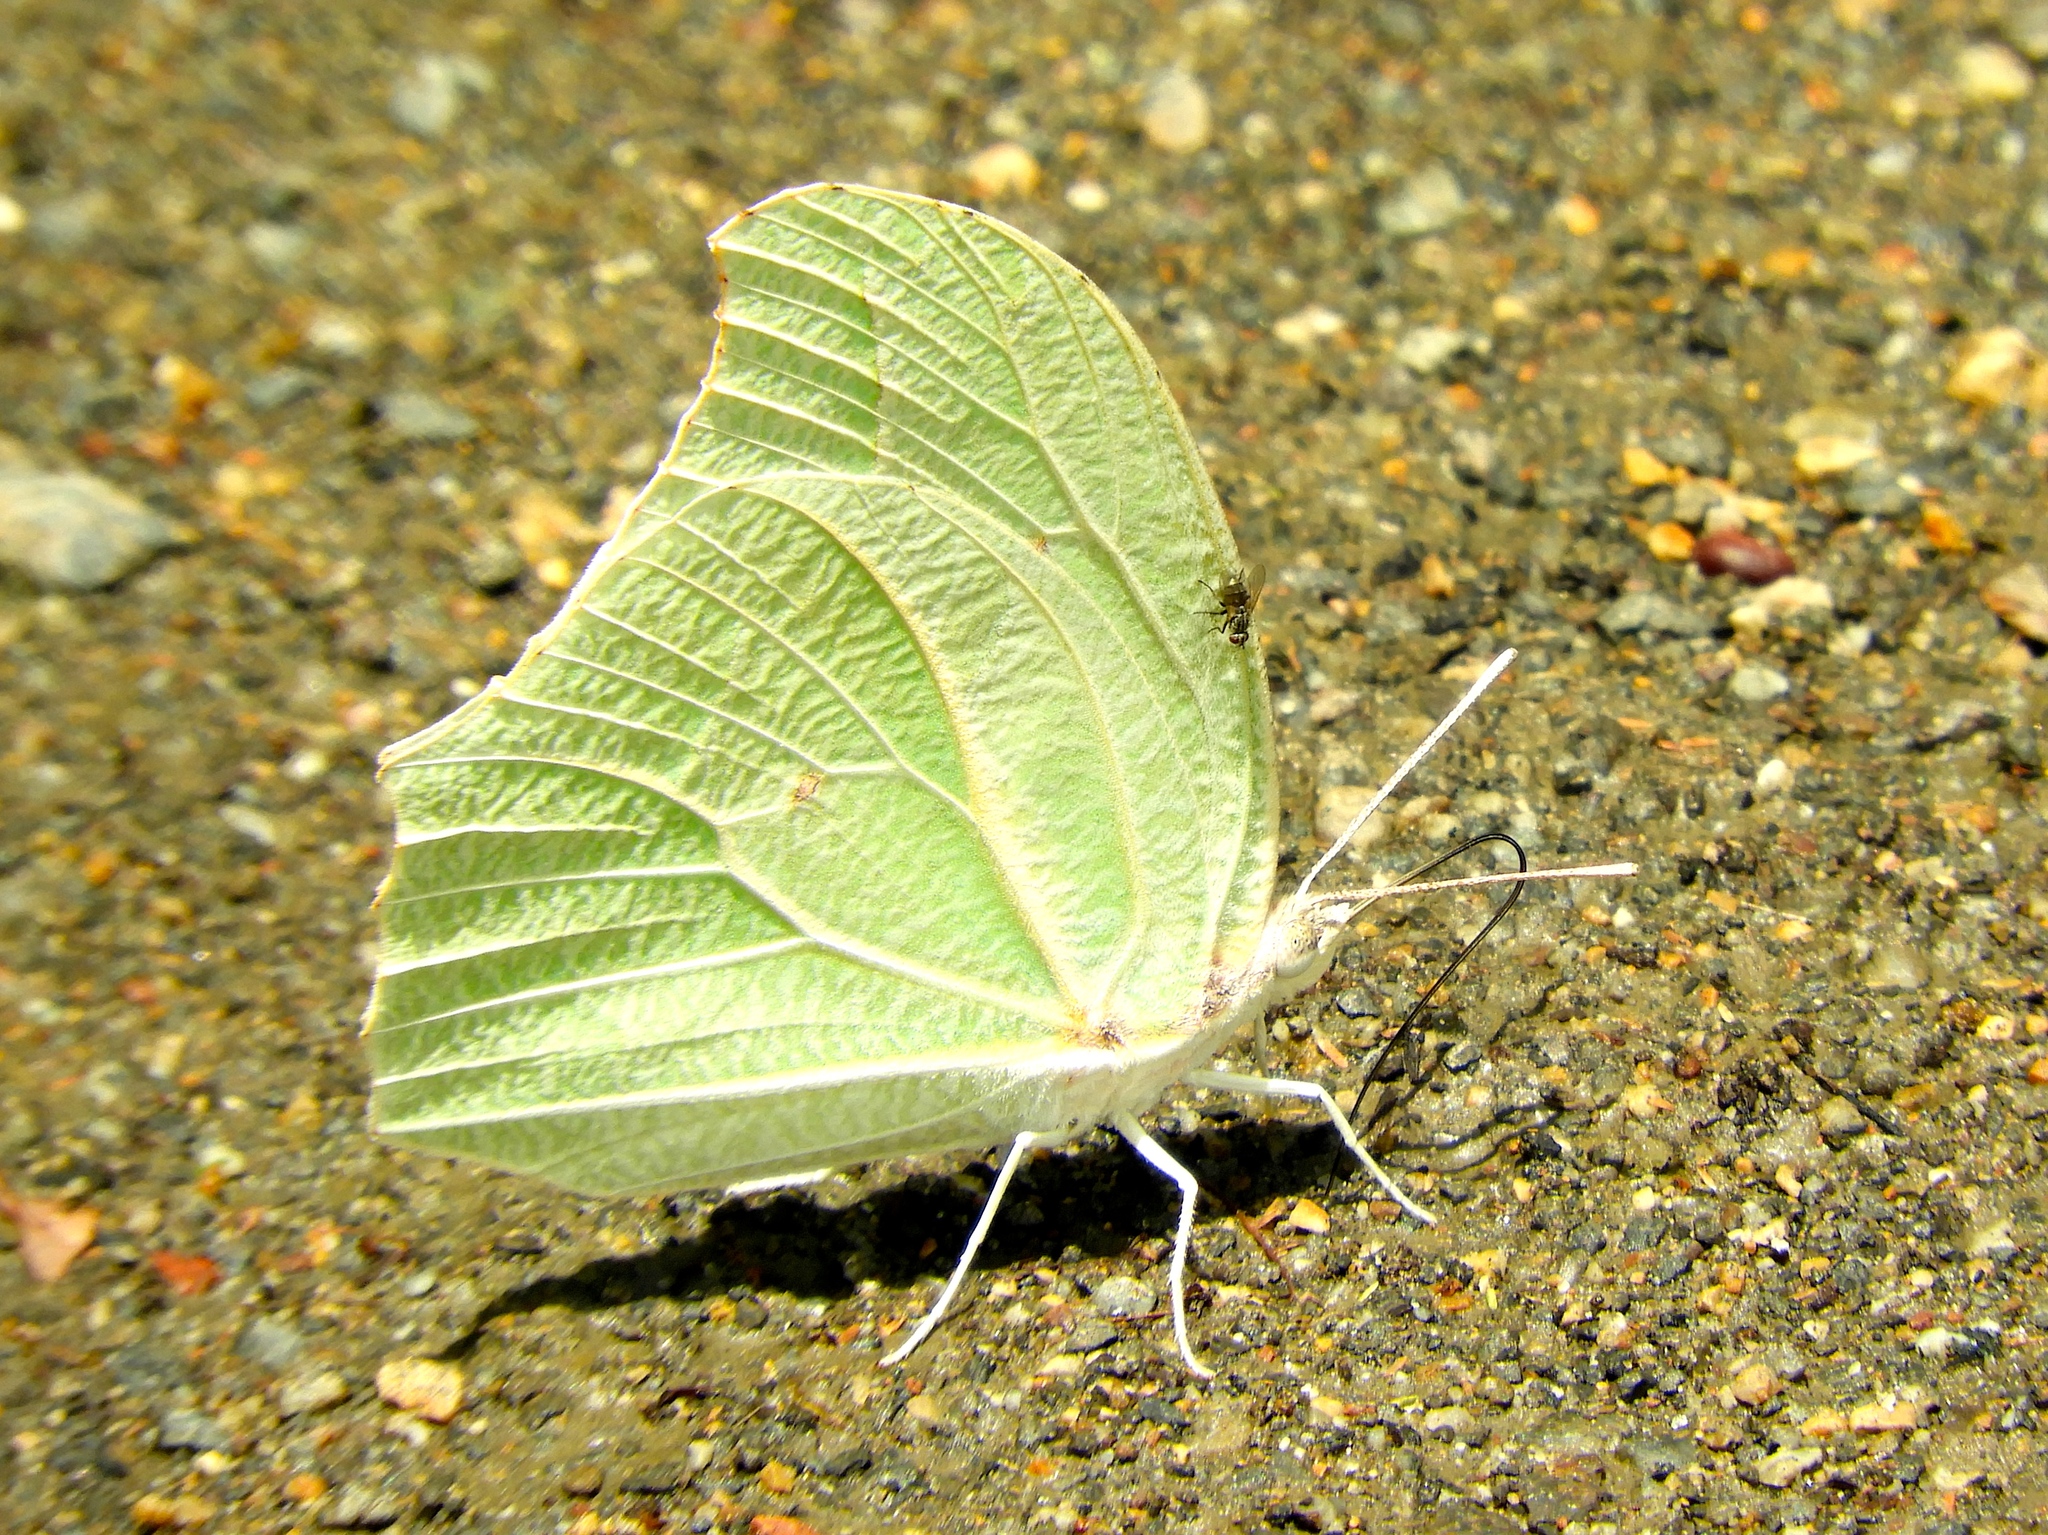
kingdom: Animalia
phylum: Arthropoda
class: Insecta
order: Lepidoptera
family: Pieridae
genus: Anteos
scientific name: Anteos clorinde
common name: White angled sulphur
